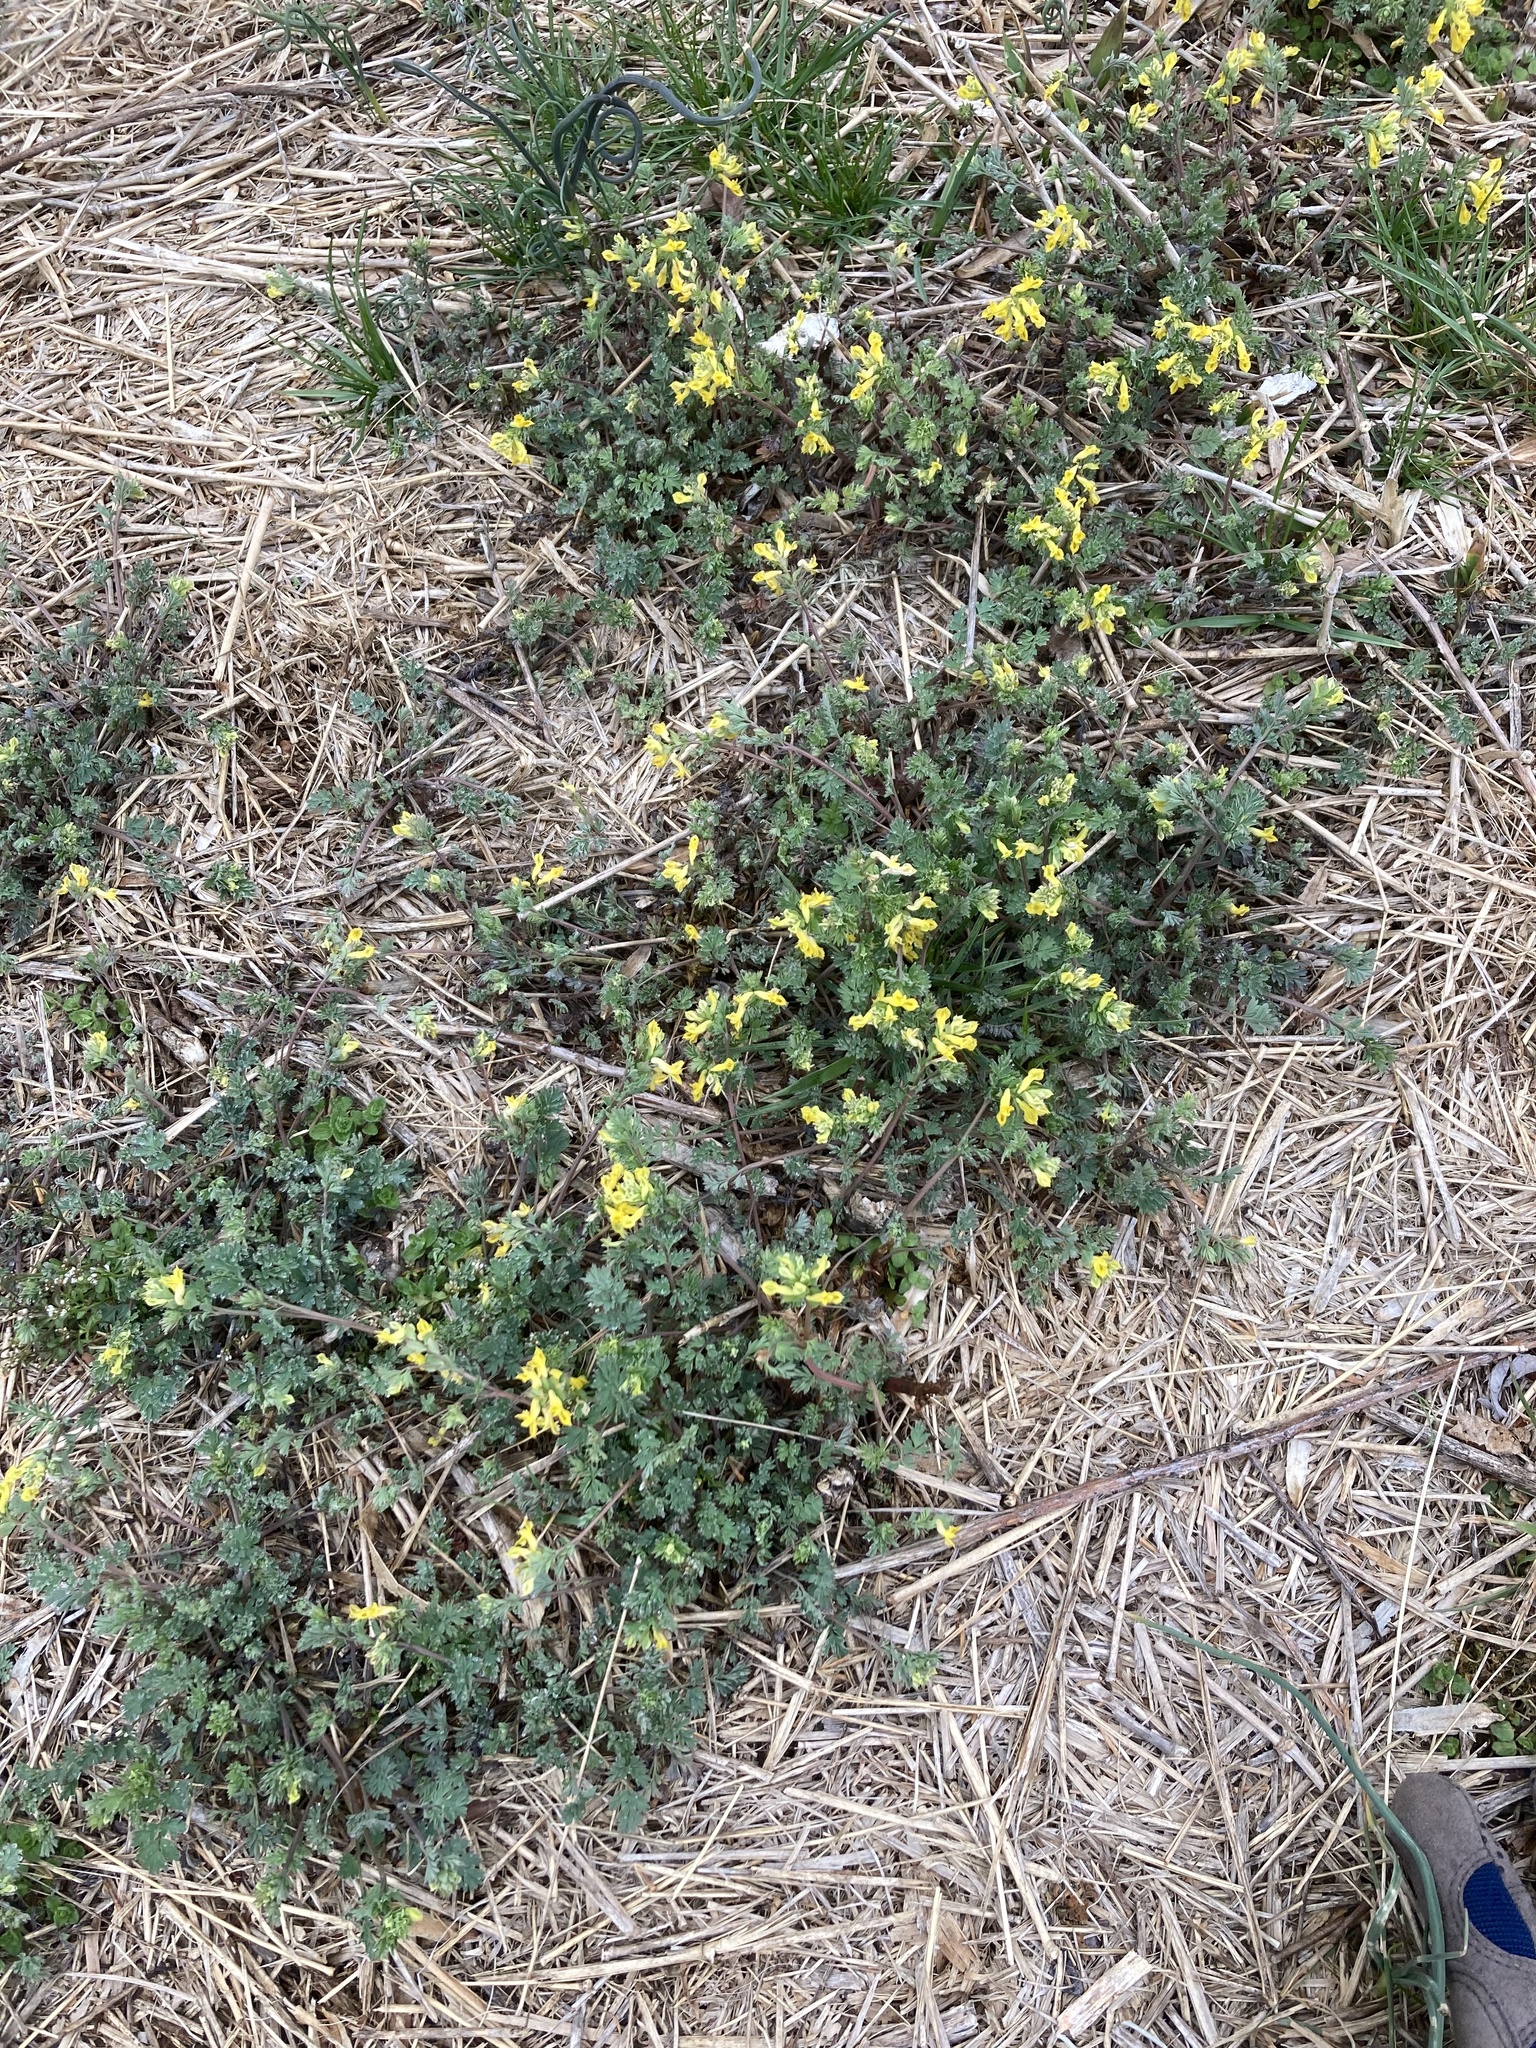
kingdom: Plantae
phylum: Tracheophyta
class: Magnoliopsida
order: Ranunculales
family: Papaveraceae
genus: Corydalis
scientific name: Corydalis flavula
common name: Yellow corydalis
